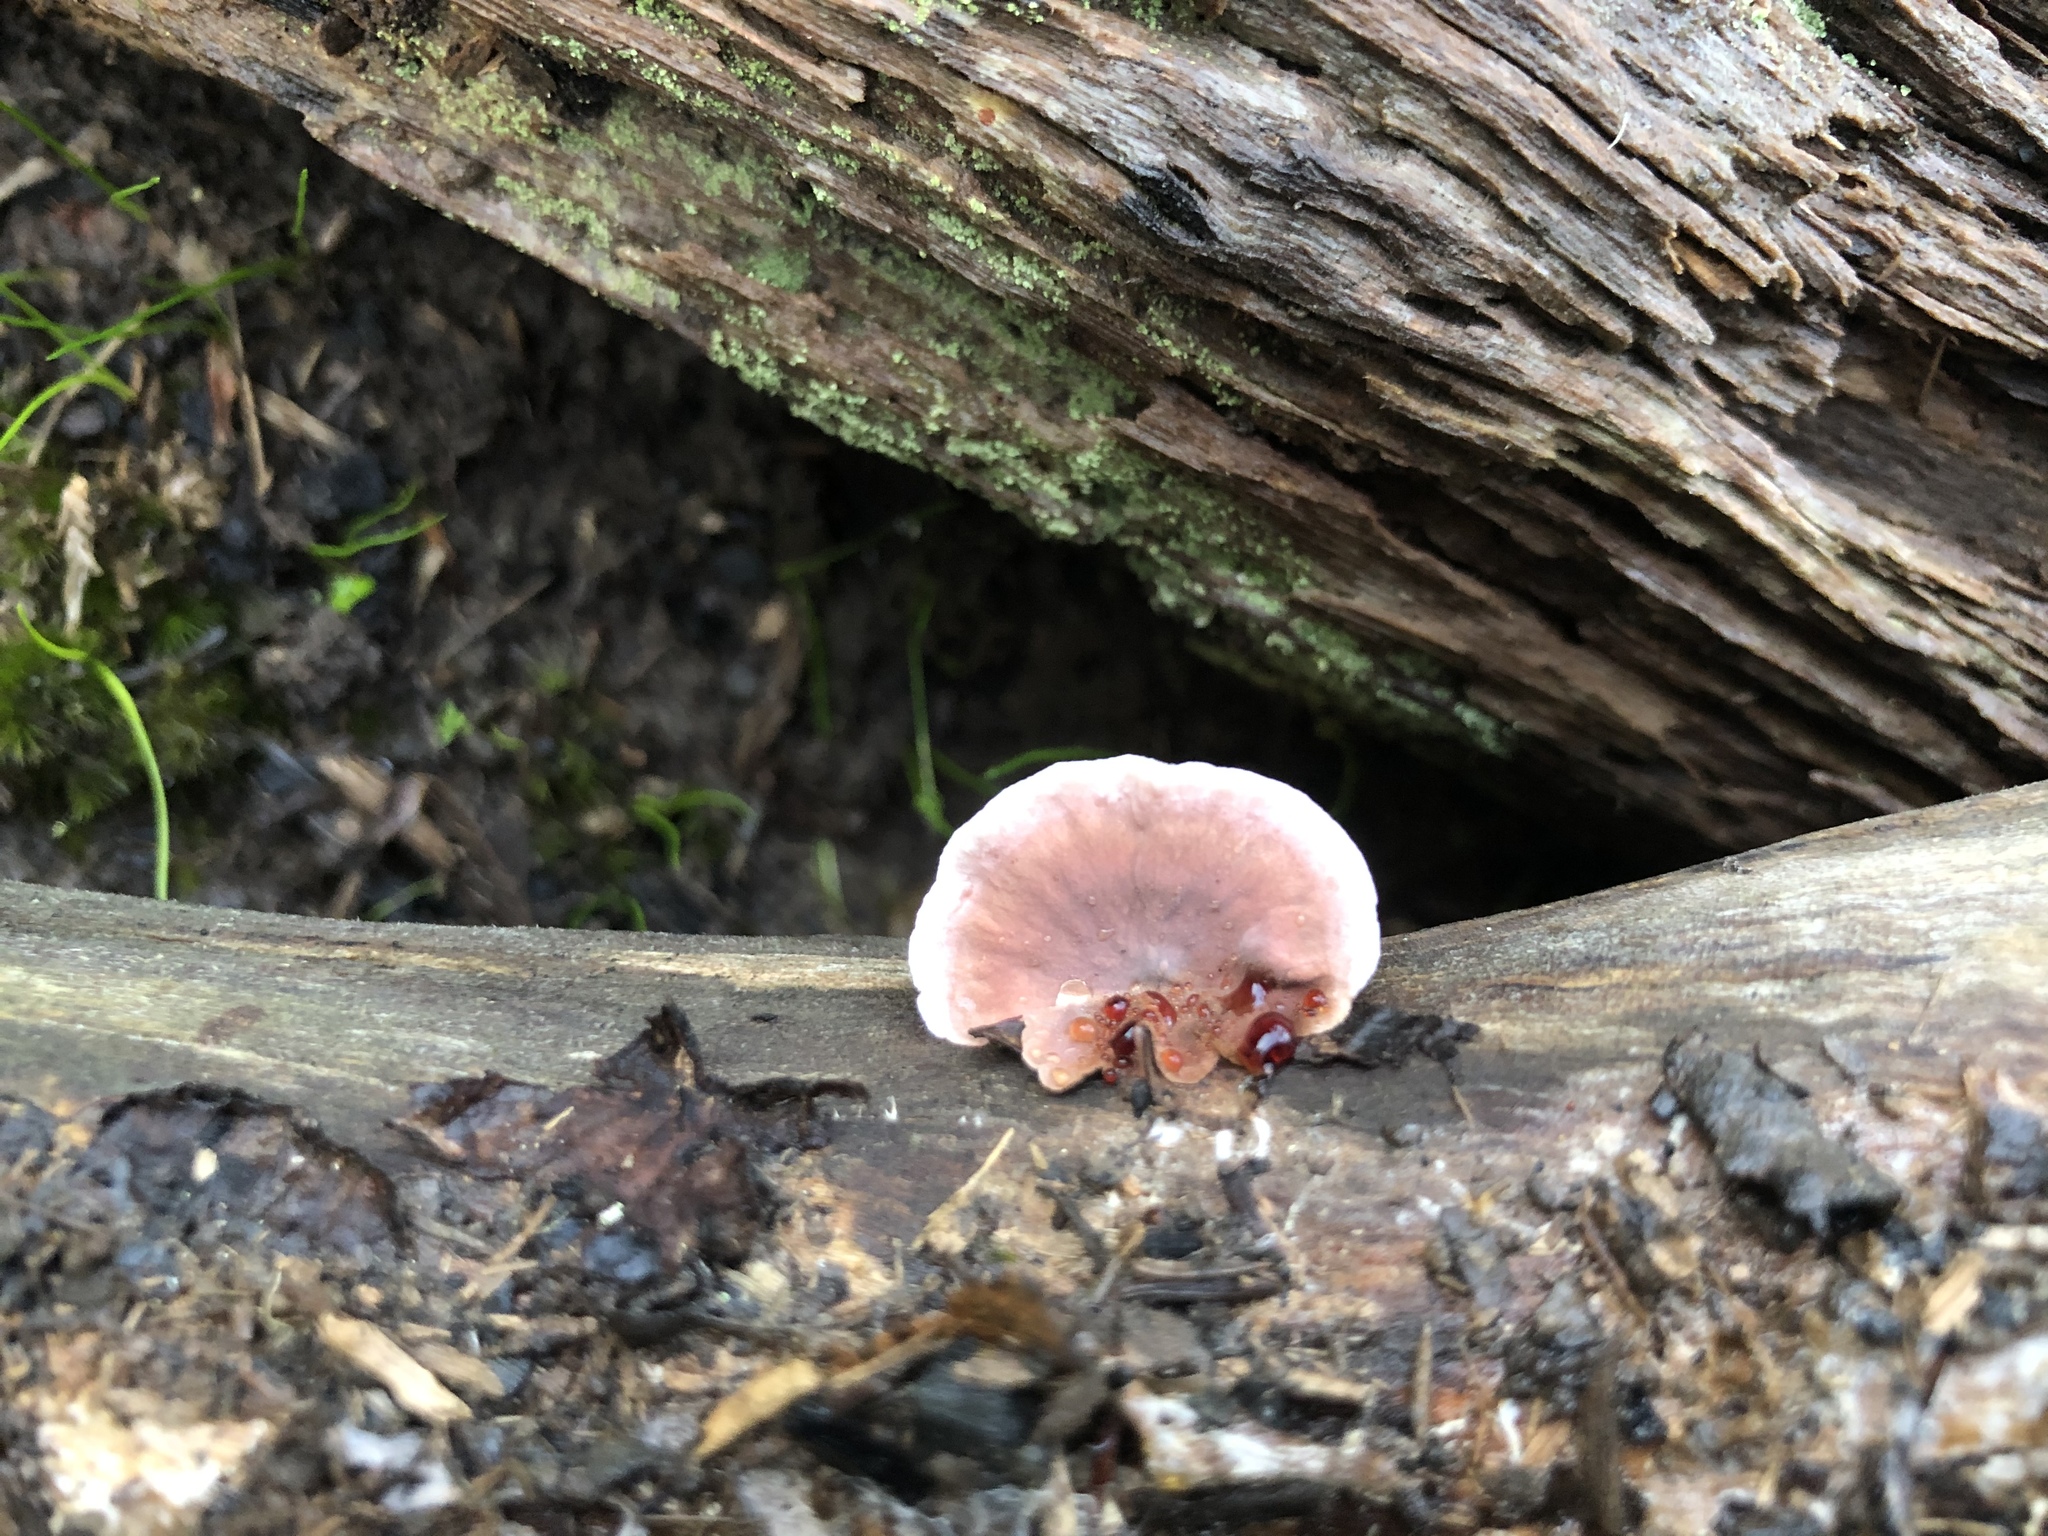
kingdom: Fungi
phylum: Basidiomycota
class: Agaricomycetes
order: Russulales
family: Stereaceae
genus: Xylobolus
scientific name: Xylobolus illudens
